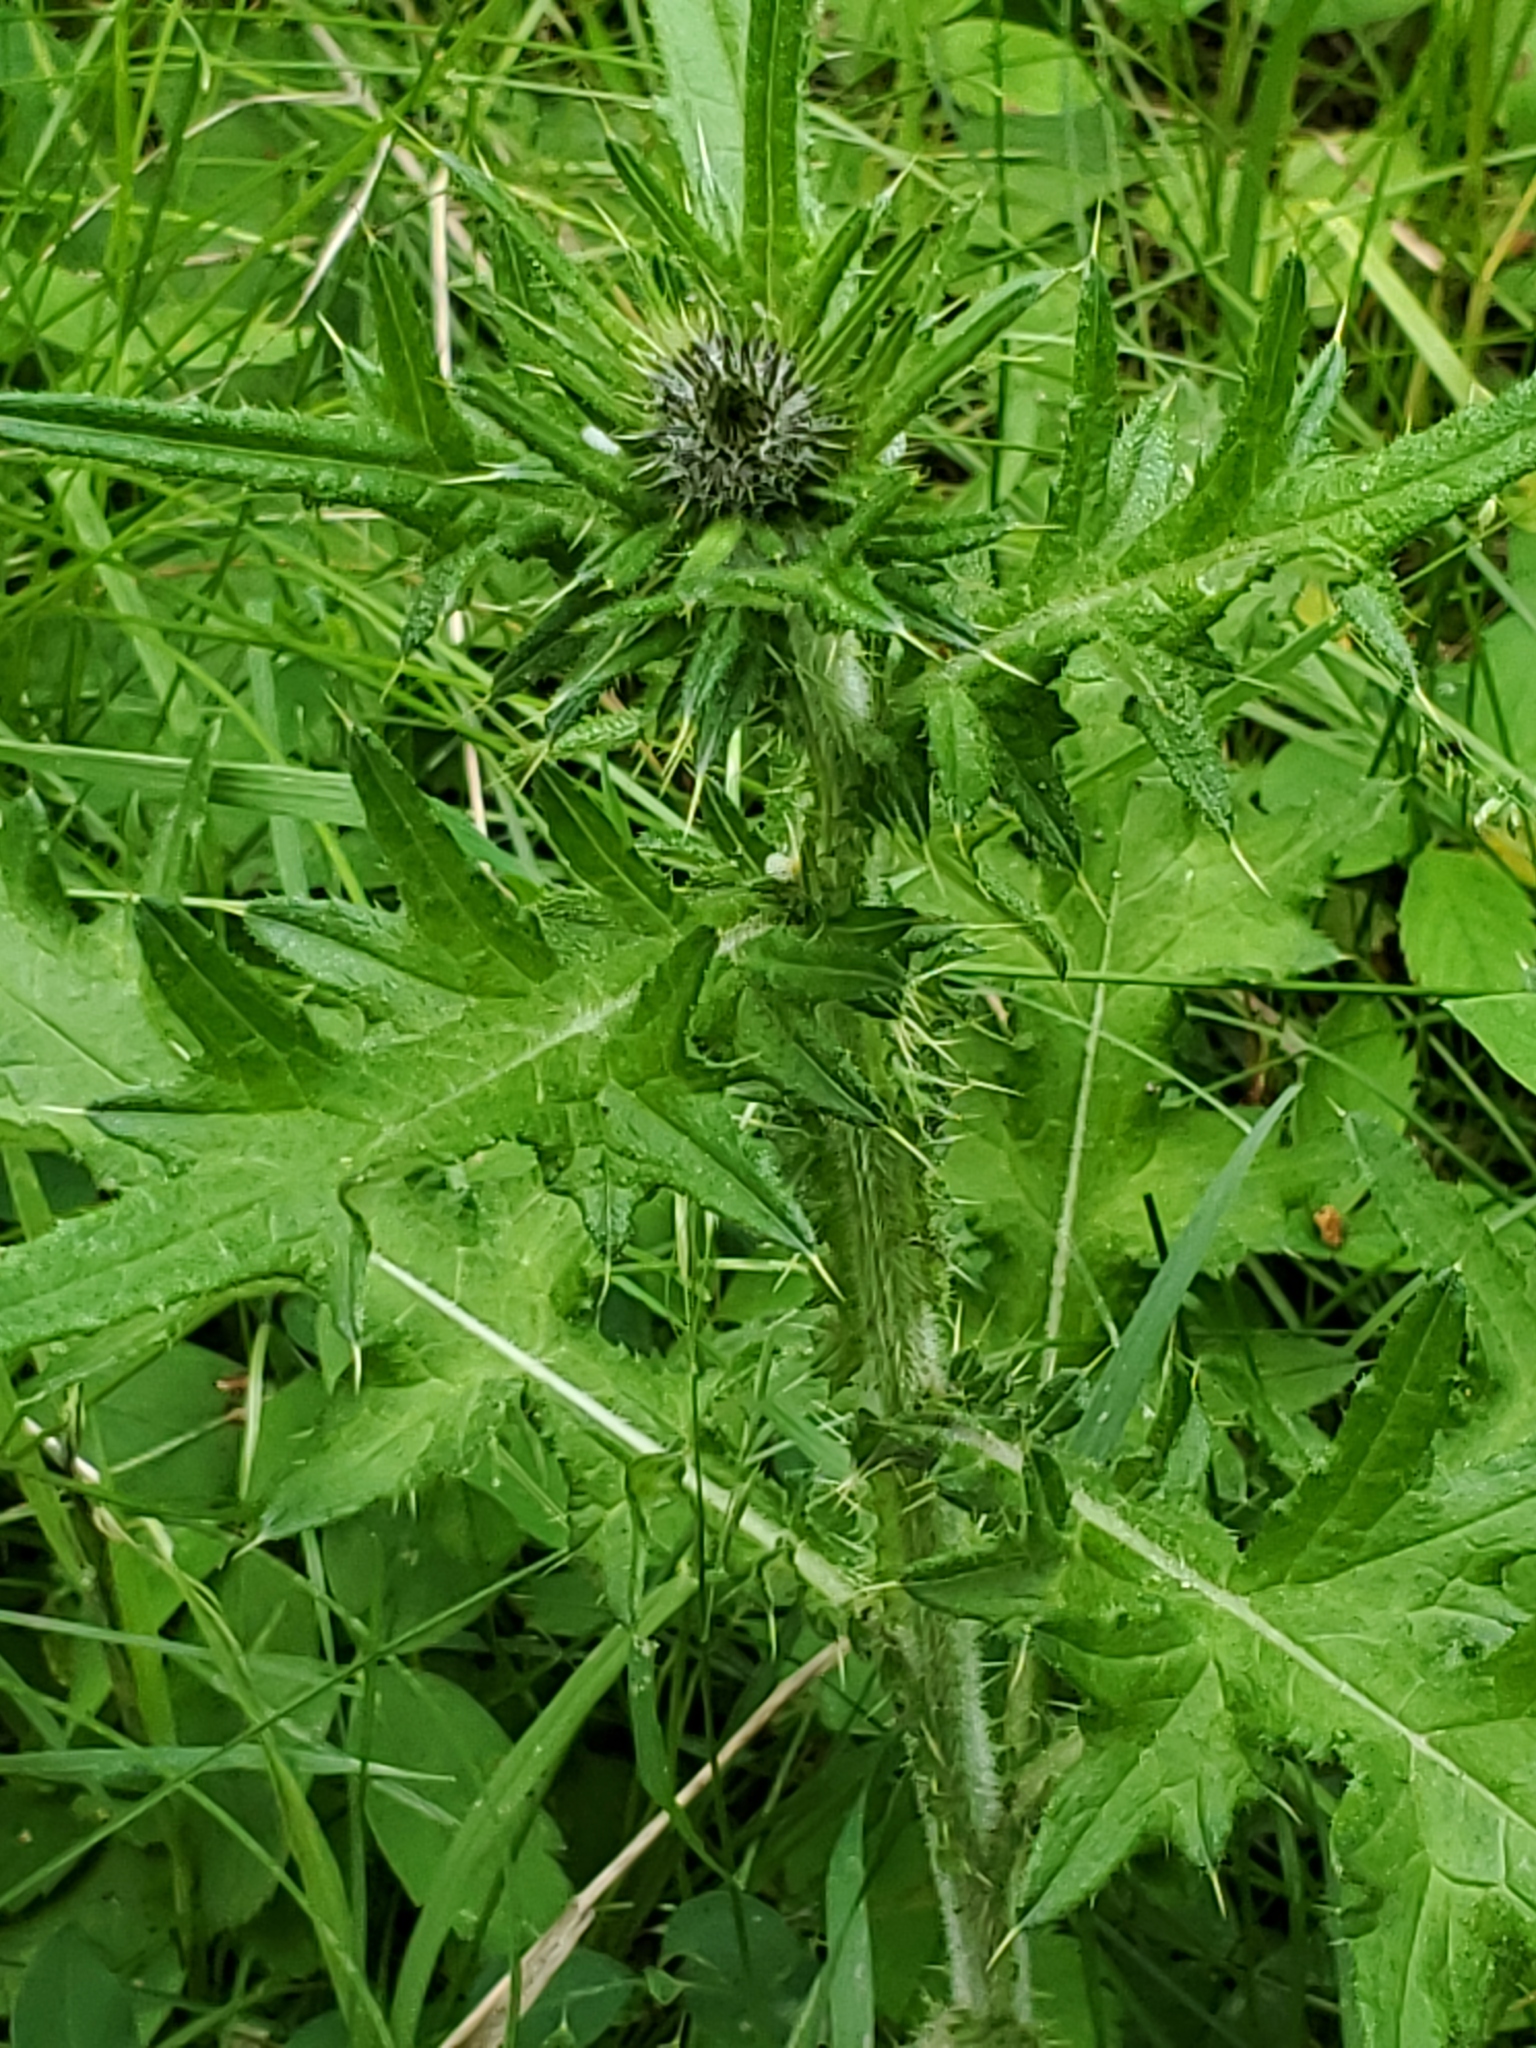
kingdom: Plantae
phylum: Tracheophyta
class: Magnoliopsida
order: Asterales
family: Asteraceae
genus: Cirsium
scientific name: Cirsium vulgare
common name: Bull thistle
